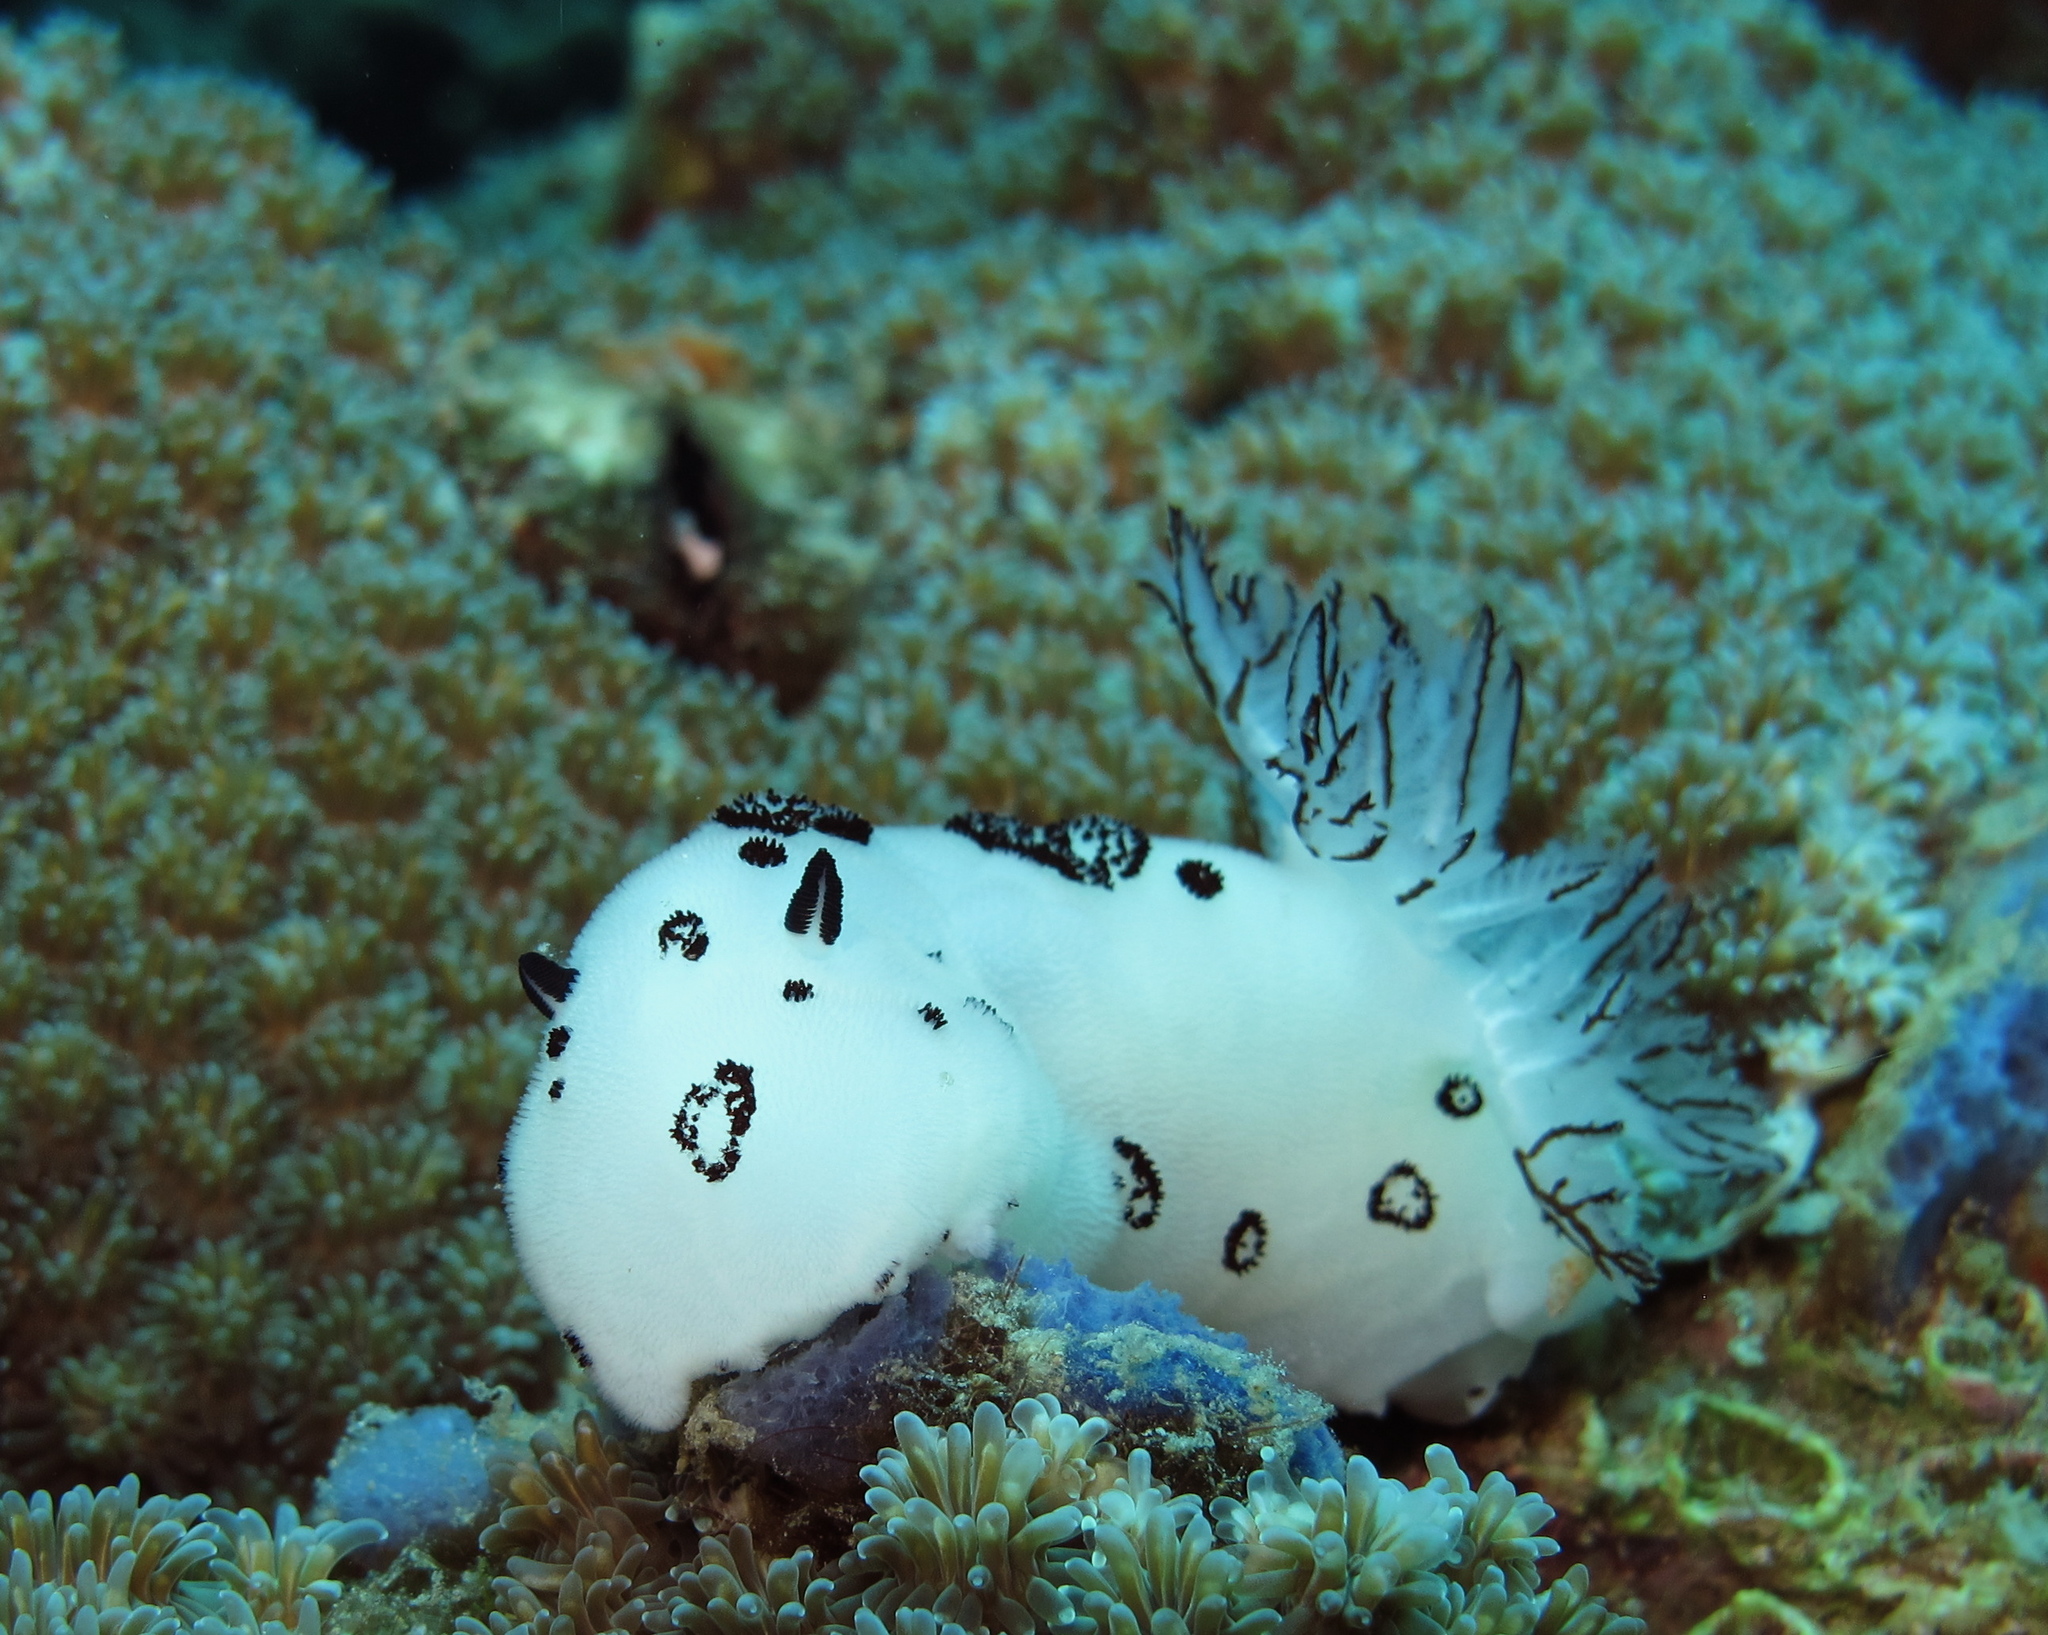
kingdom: Animalia
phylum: Mollusca
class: Gastropoda
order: Nudibranchia
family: Discodorididae
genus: Jorunna
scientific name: Jorunna funebris
